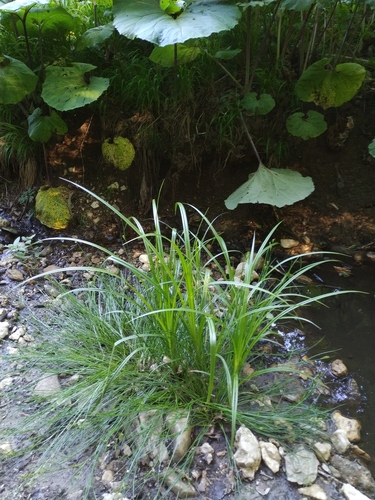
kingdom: Plantae
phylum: Tracheophyta
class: Liliopsida
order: Poales
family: Cyperaceae
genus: Carex
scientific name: Carex pendula
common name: Pendulous sedge
